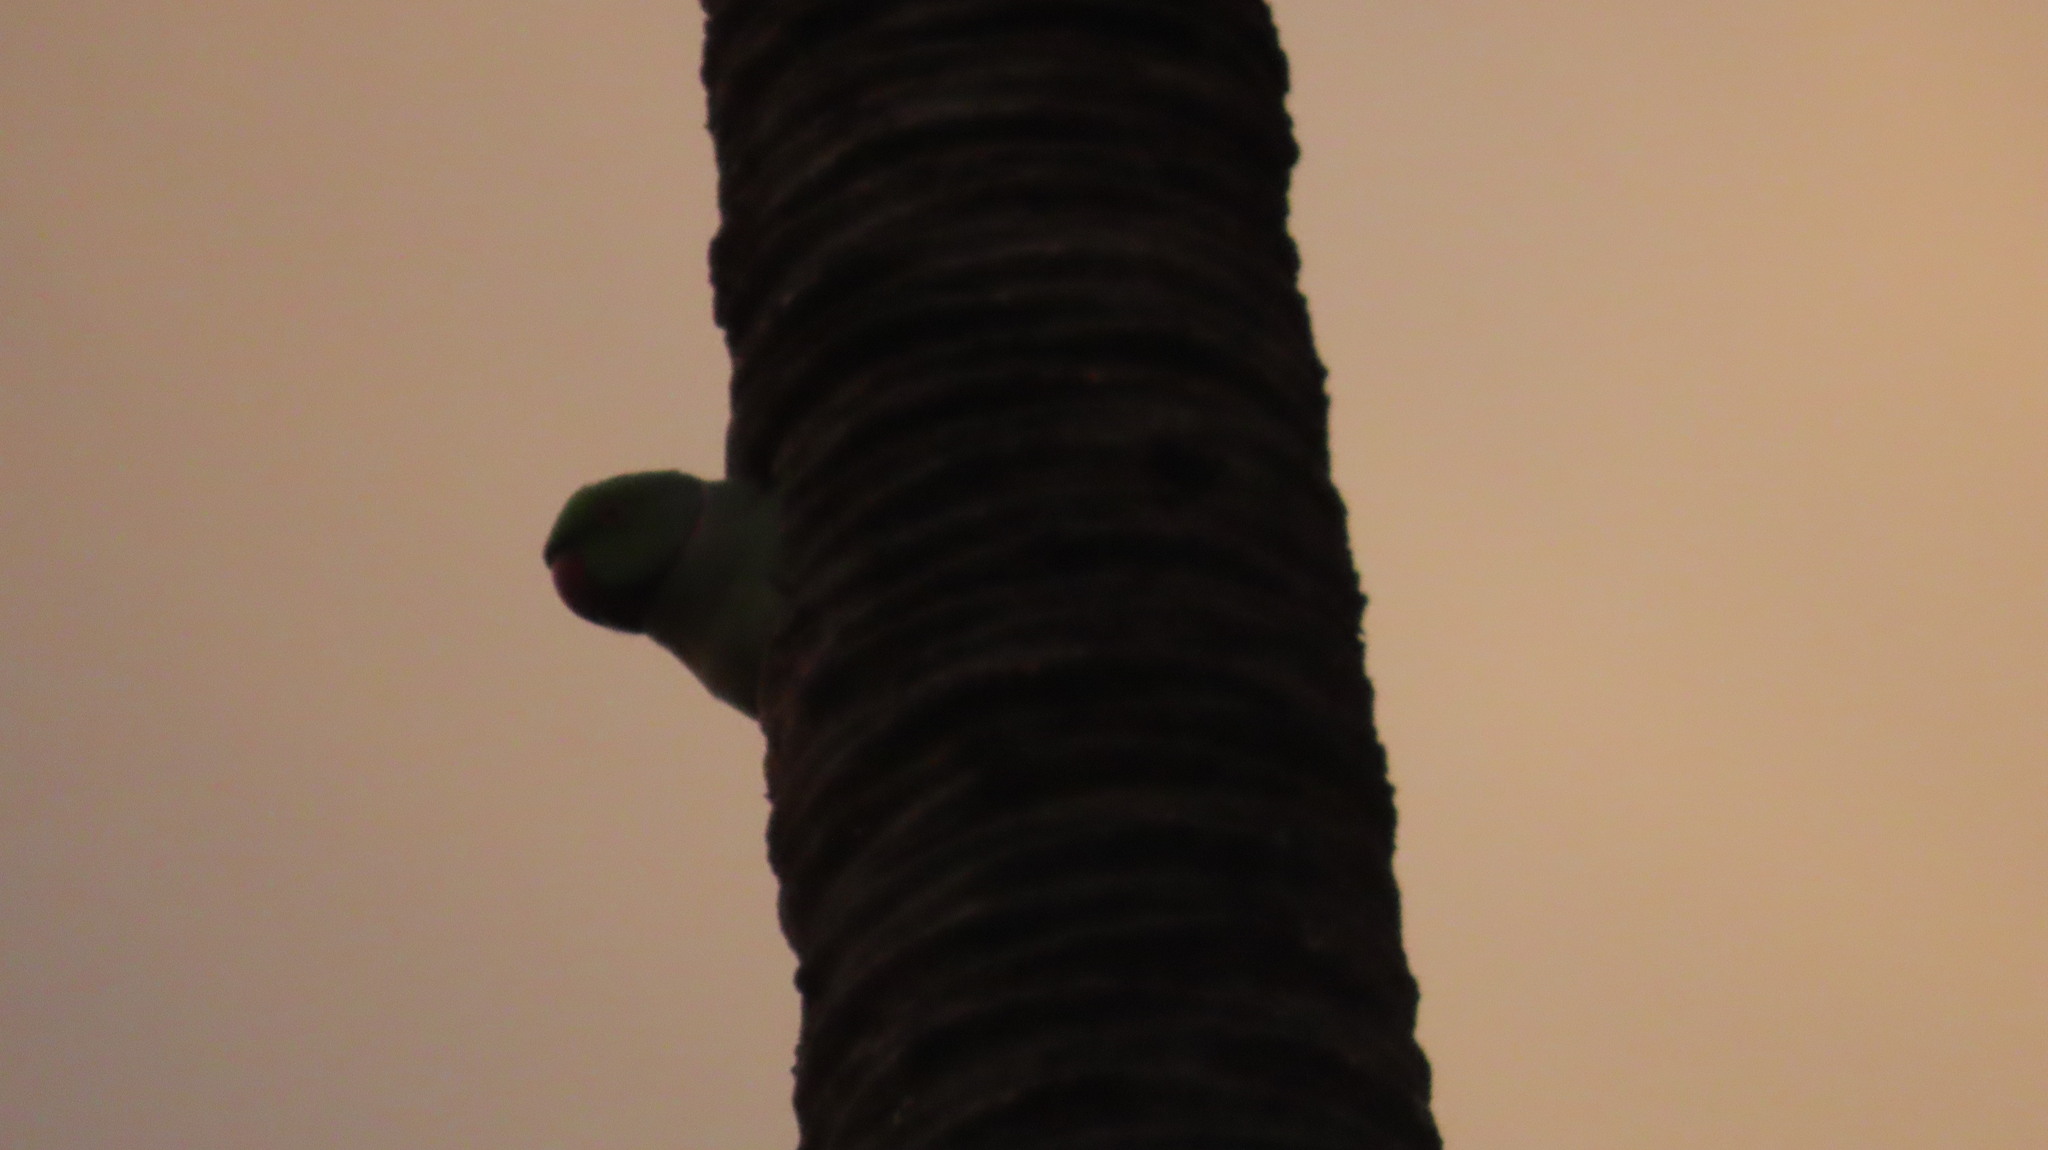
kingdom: Animalia
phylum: Chordata
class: Aves
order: Psittaciformes
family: Psittacidae
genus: Psittacula
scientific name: Psittacula krameri
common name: Rose-ringed parakeet
